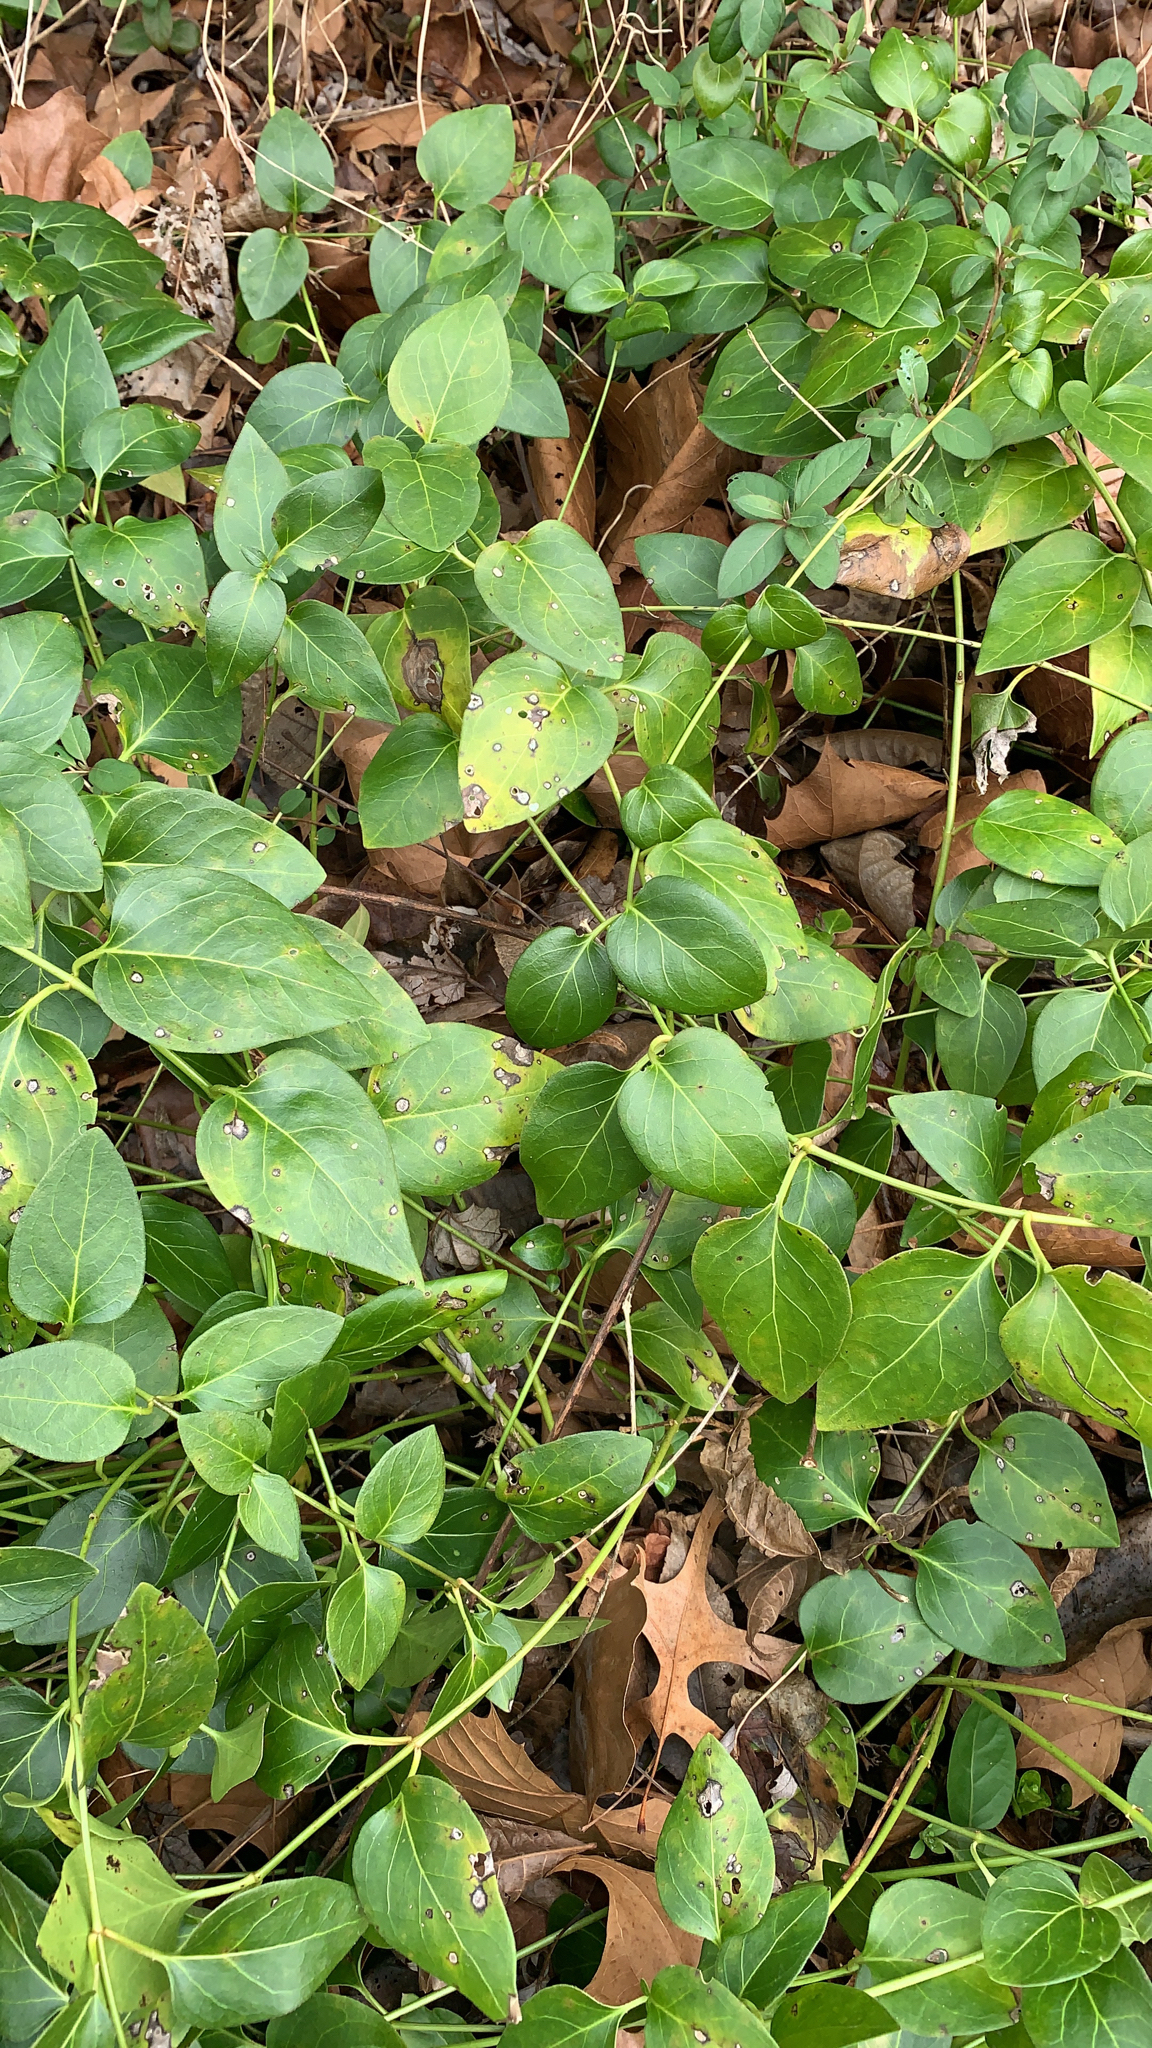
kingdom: Plantae
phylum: Tracheophyta
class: Magnoliopsida
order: Gentianales
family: Apocynaceae
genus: Vinca
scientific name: Vinca major
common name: Greater periwinkle
